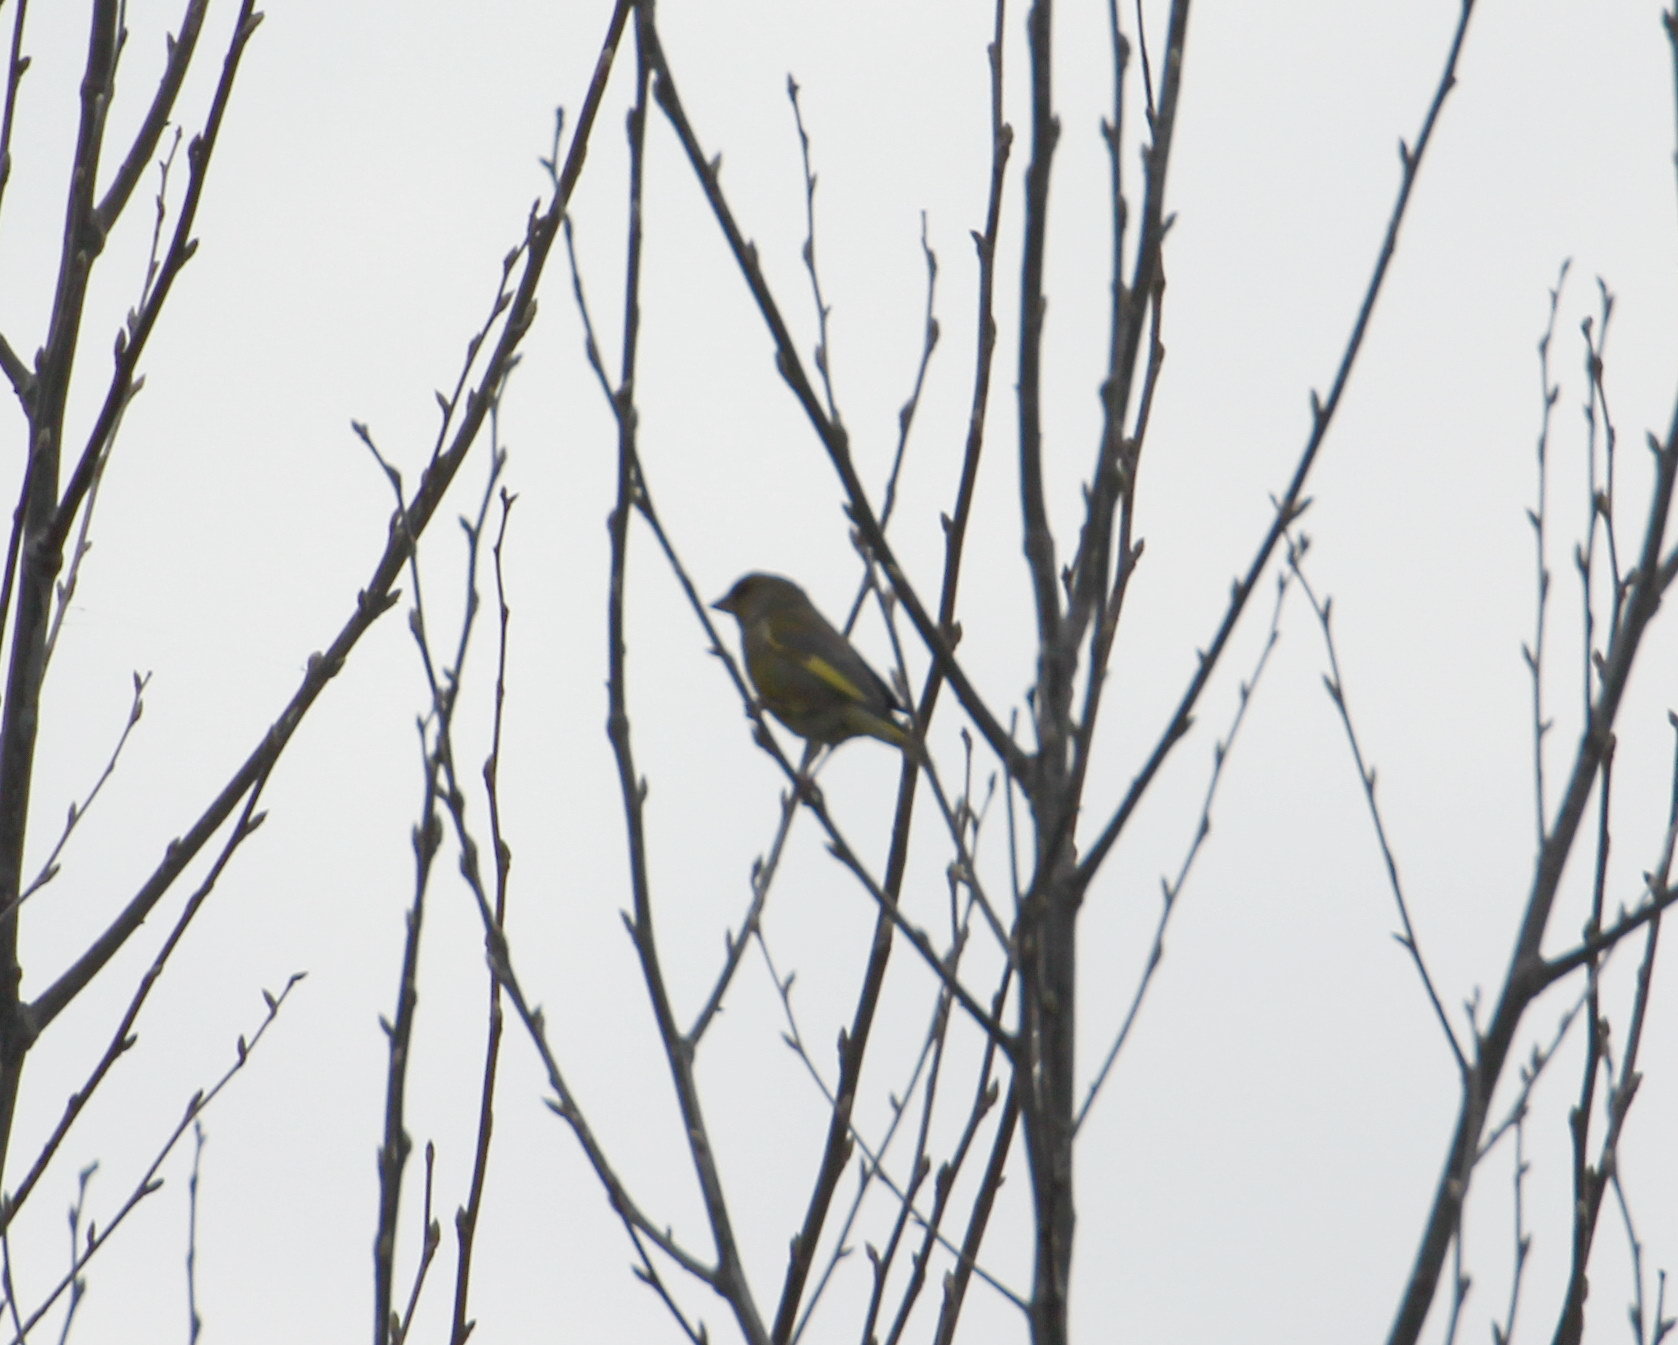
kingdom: Plantae
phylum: Tracheophyta
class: Liliopsida
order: Poales
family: Poaceae
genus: Chloris
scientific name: Chloris chloris
